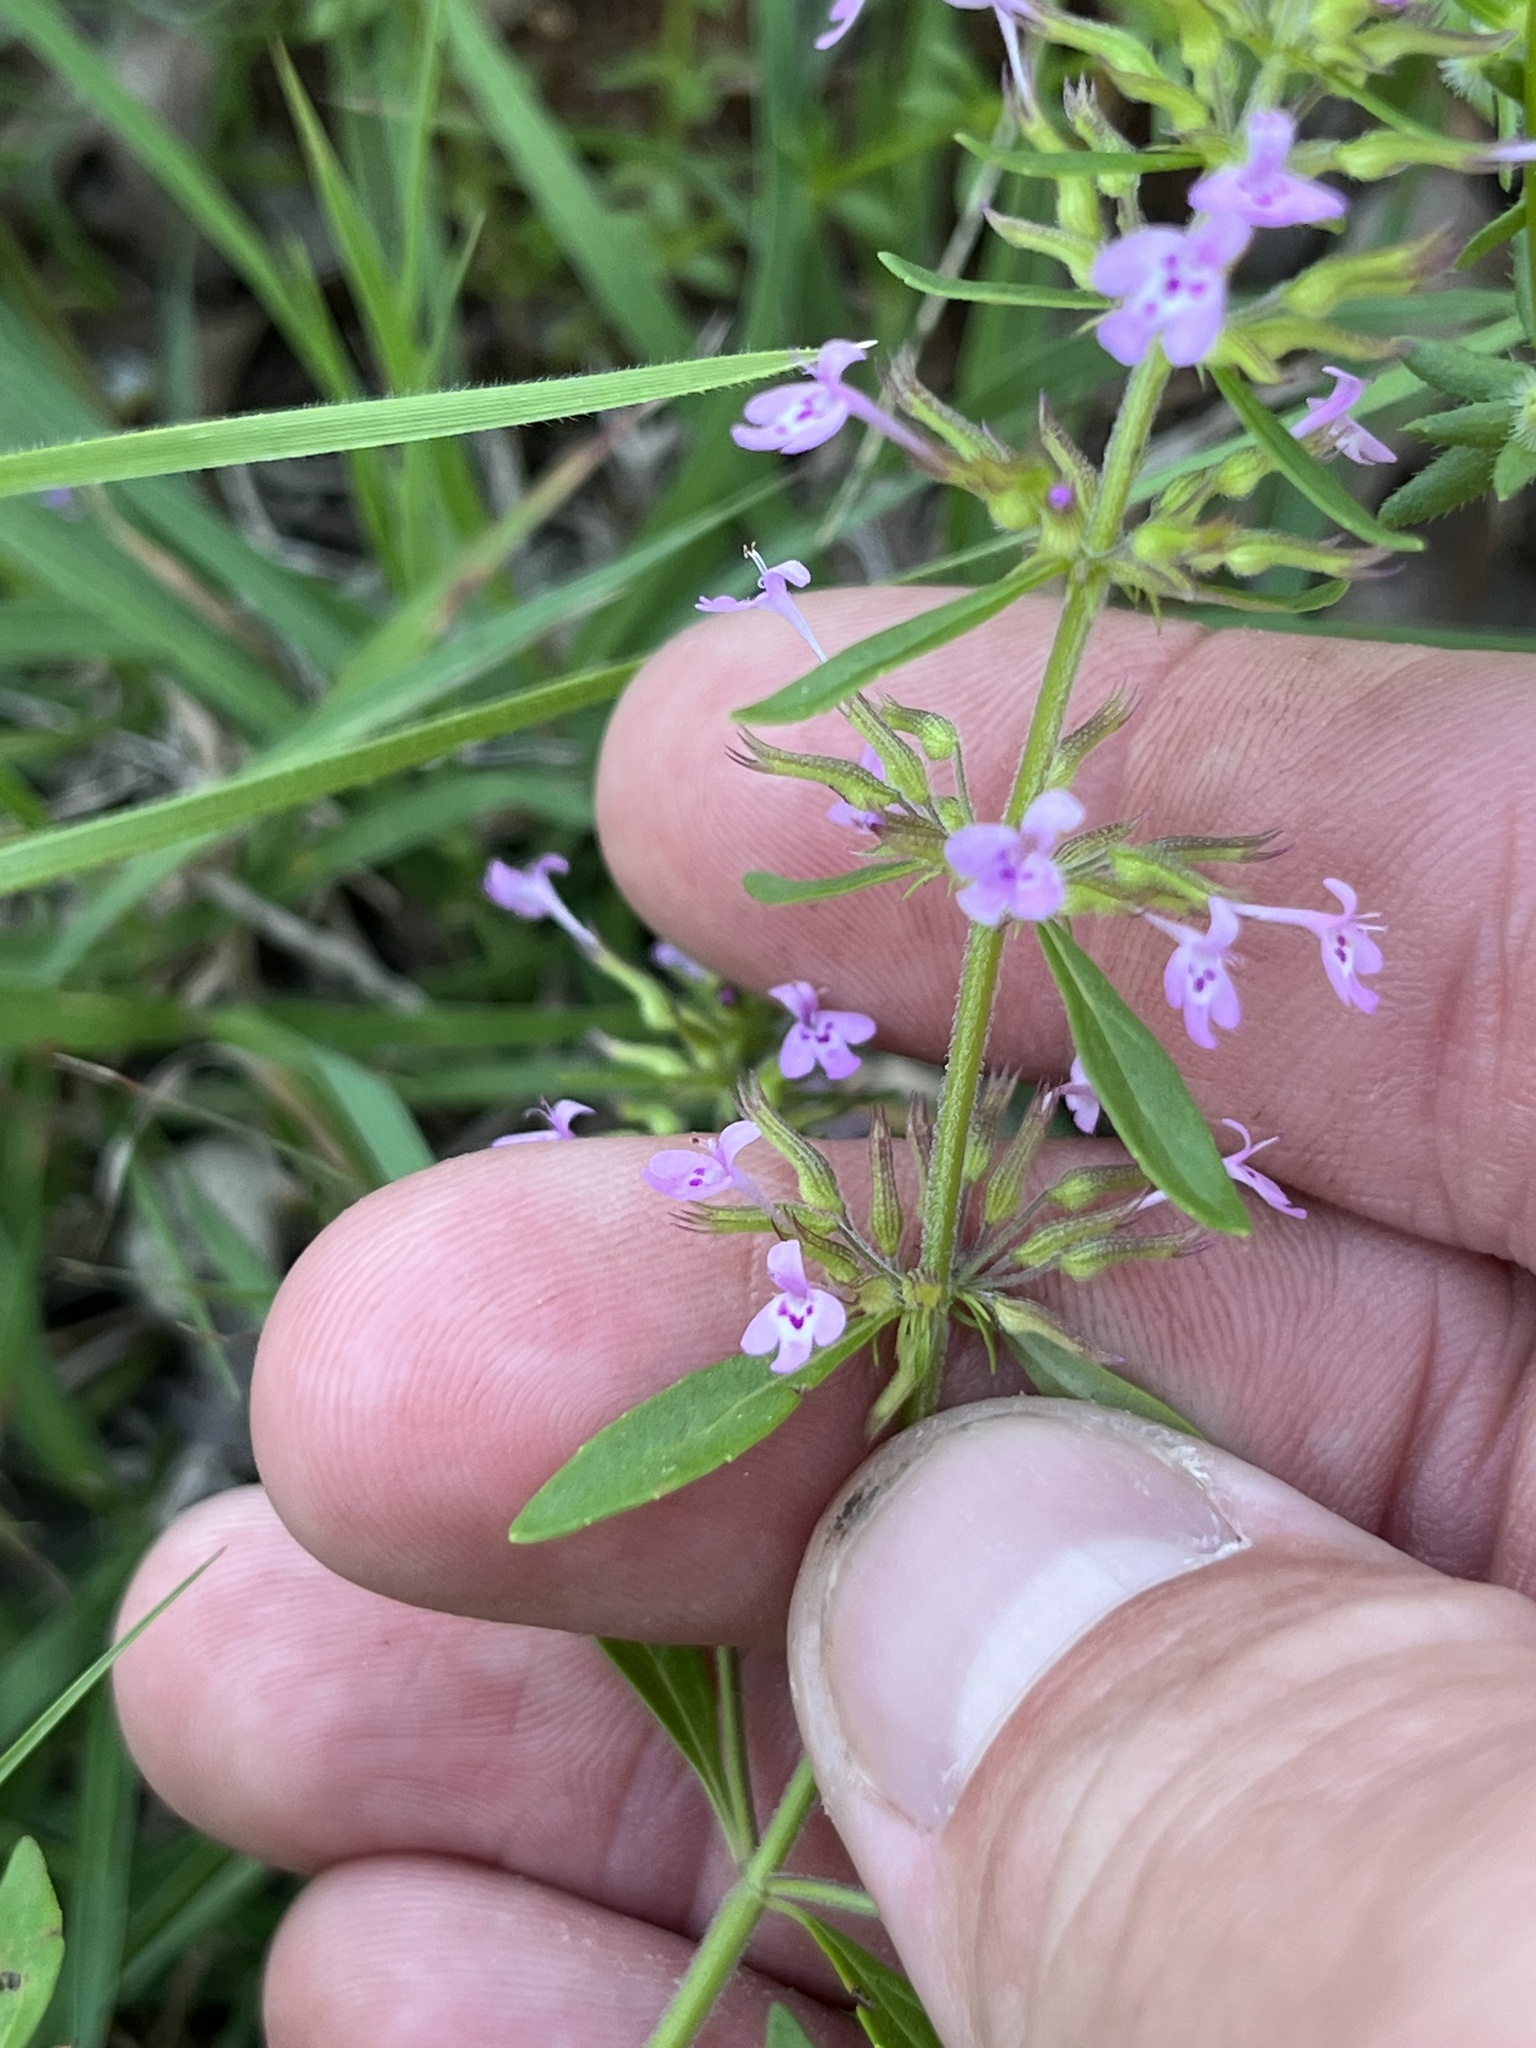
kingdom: Plantae
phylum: Tracheophyta
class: Magnoliopsida
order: Lamiales
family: Lamiaceae
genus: Hedeoma
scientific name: Hedeoma acinoides
